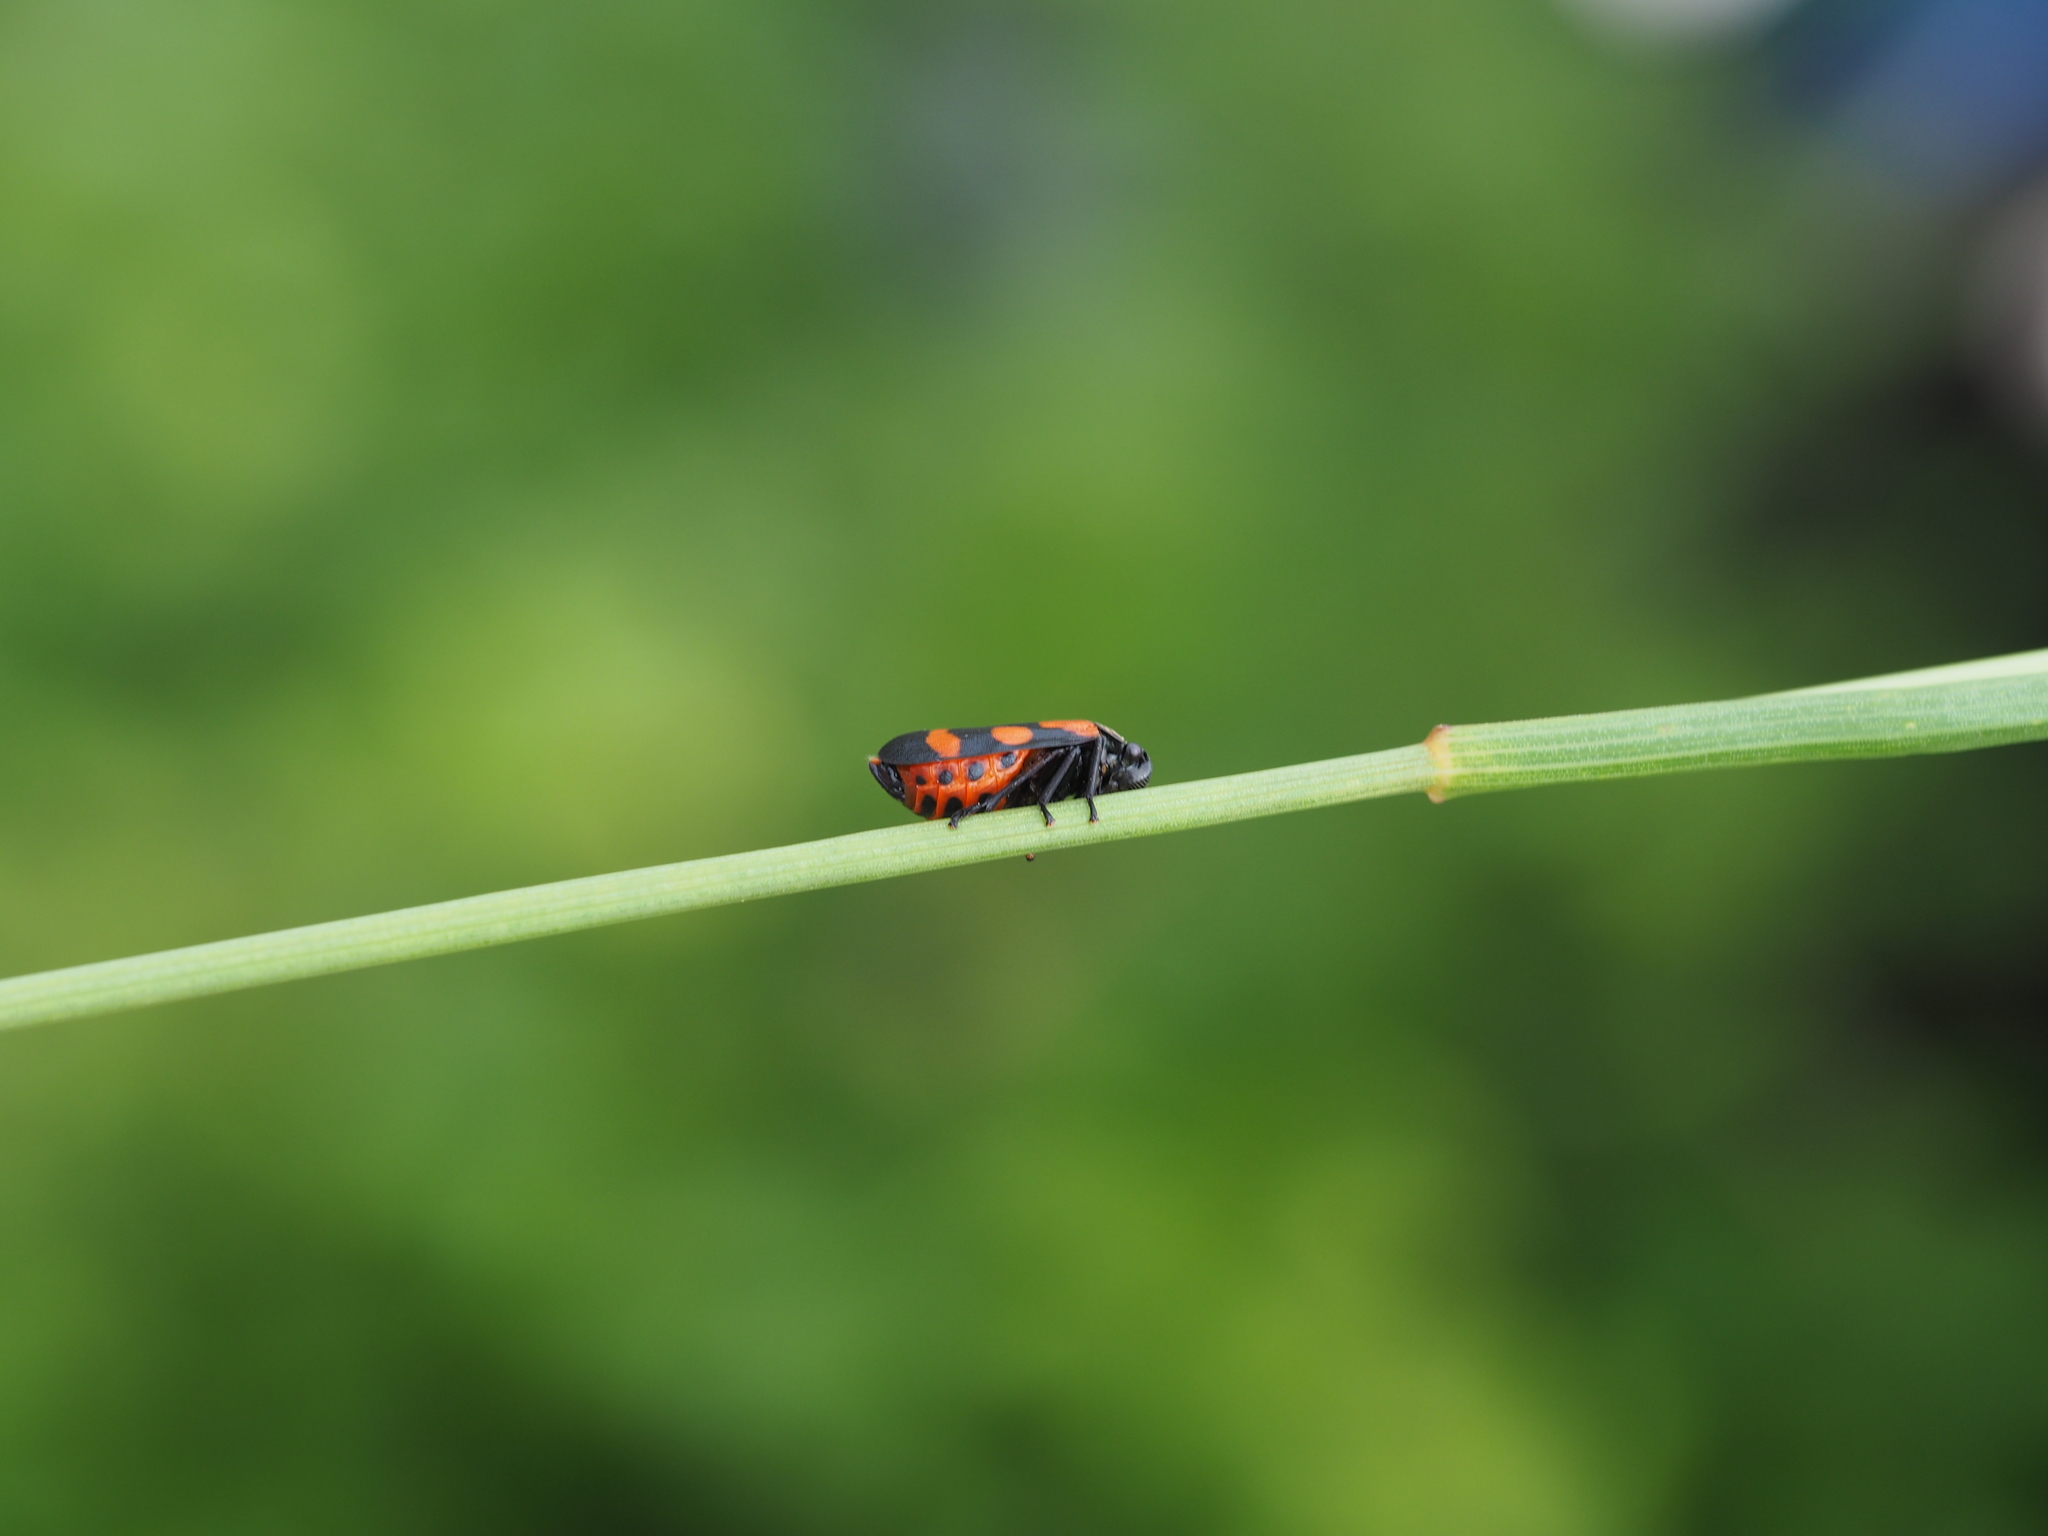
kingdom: Animalia
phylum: Arthropoda
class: Insecta
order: Hemiptera
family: Cercopidae
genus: Cercopis
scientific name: Cercopis sanguinolenta
